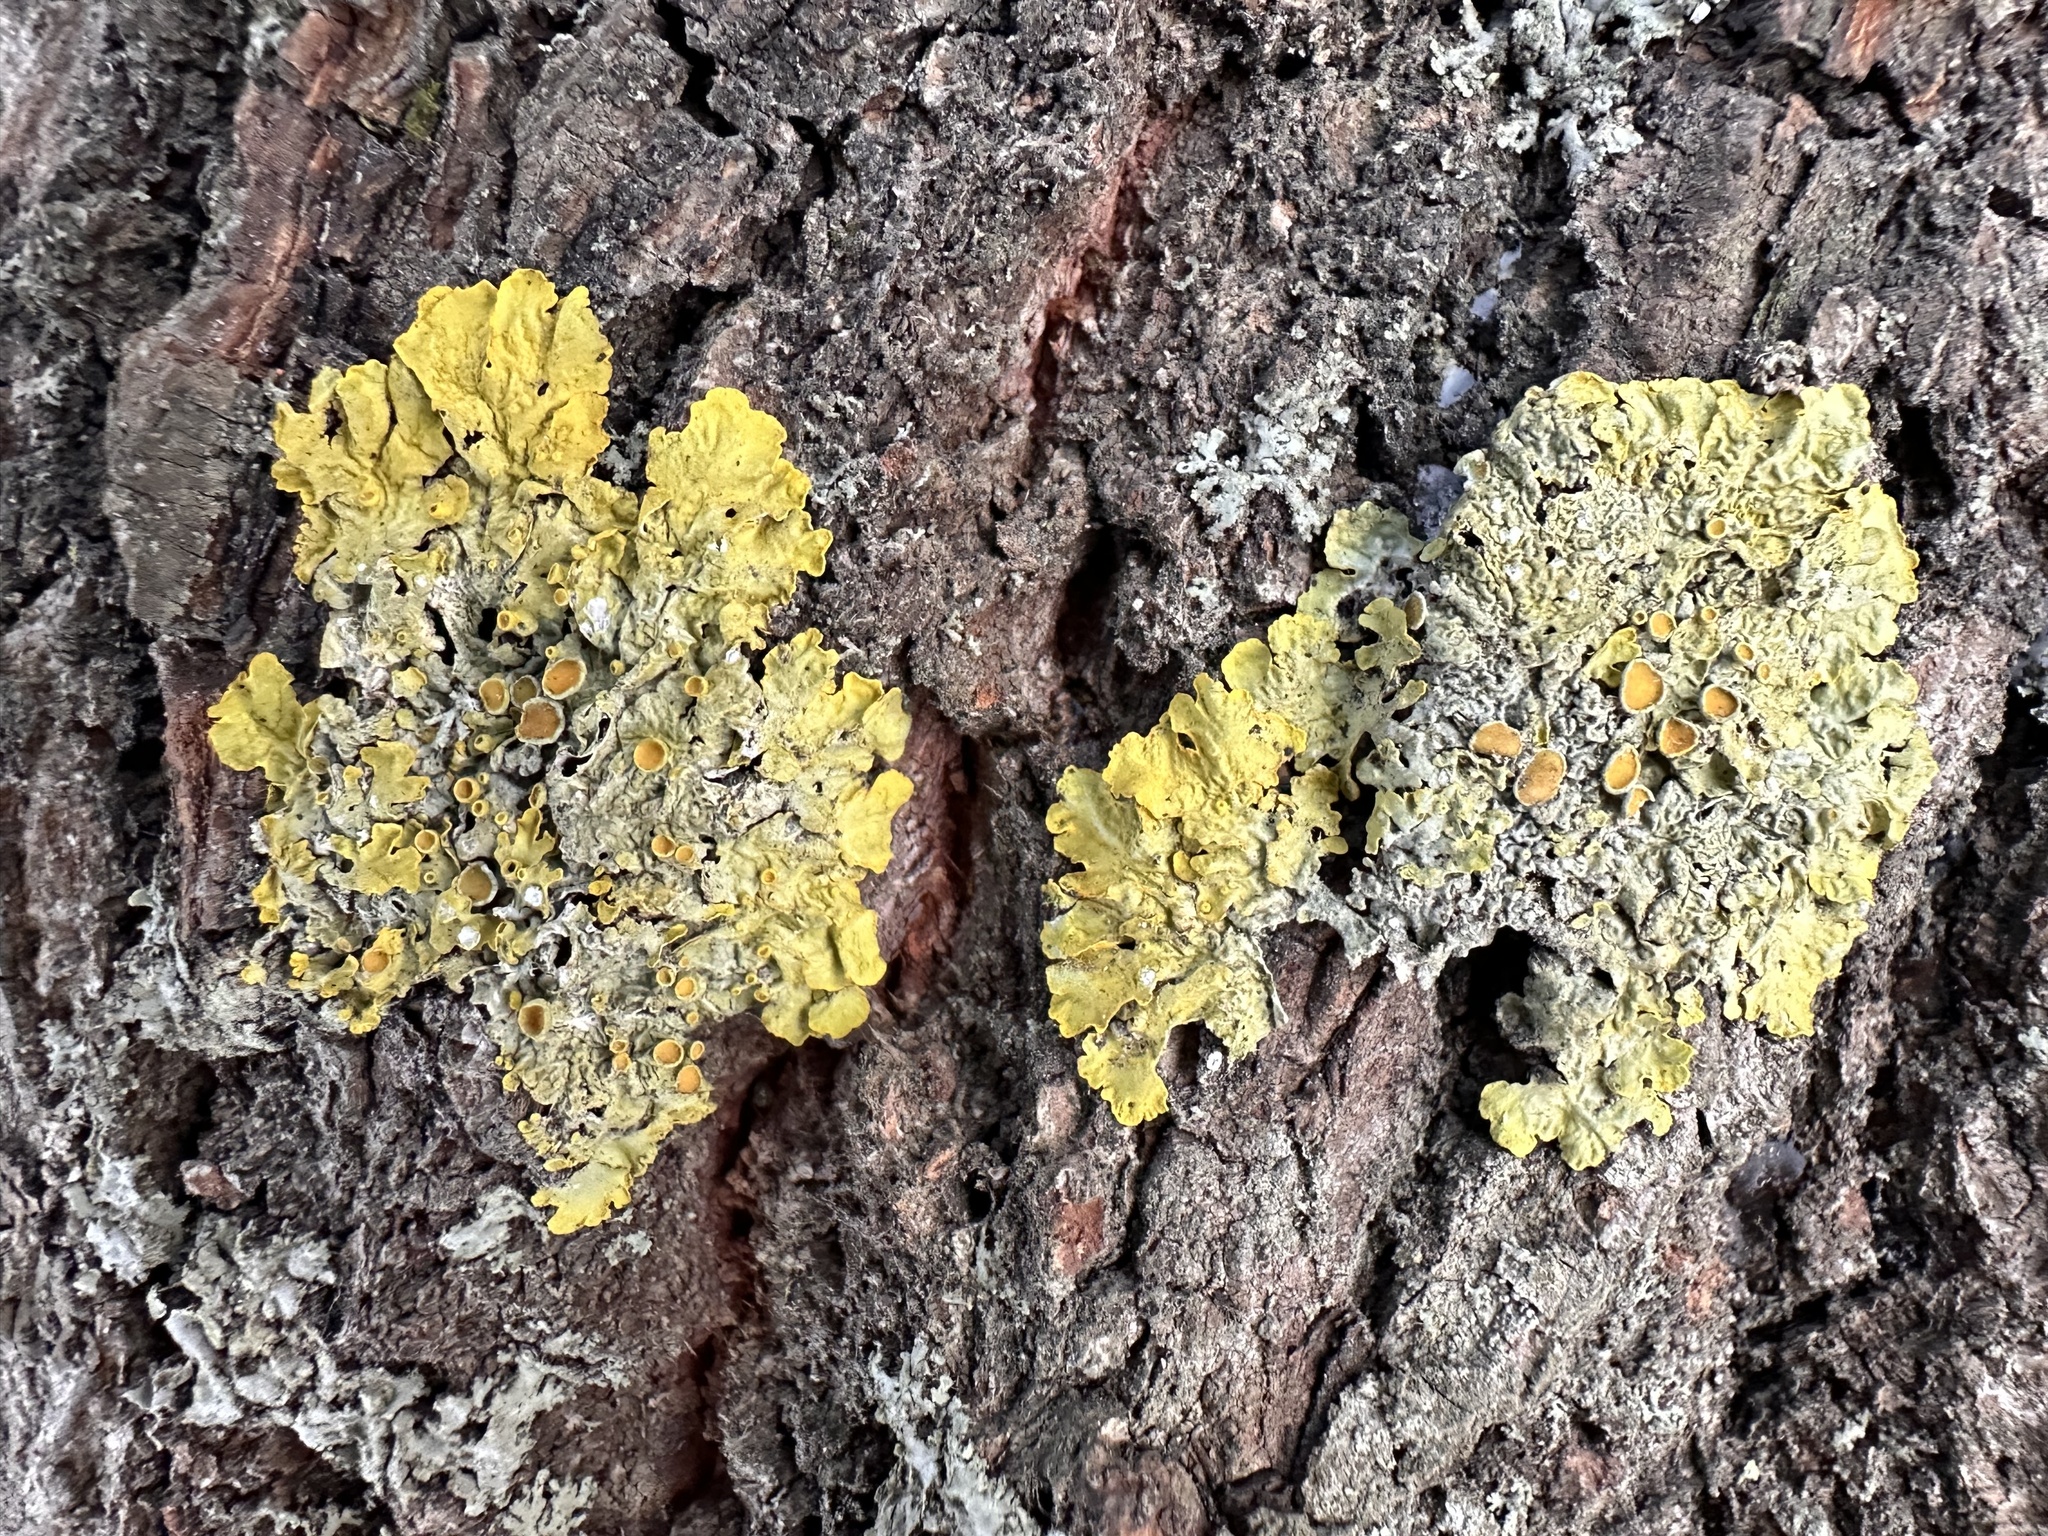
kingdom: Fungi
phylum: Ascomycota
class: Lecanoromycetes
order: Teloschistales
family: Teloschistaceae
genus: Xanthoria
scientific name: Xanthoria parietina
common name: Common orange lichen
